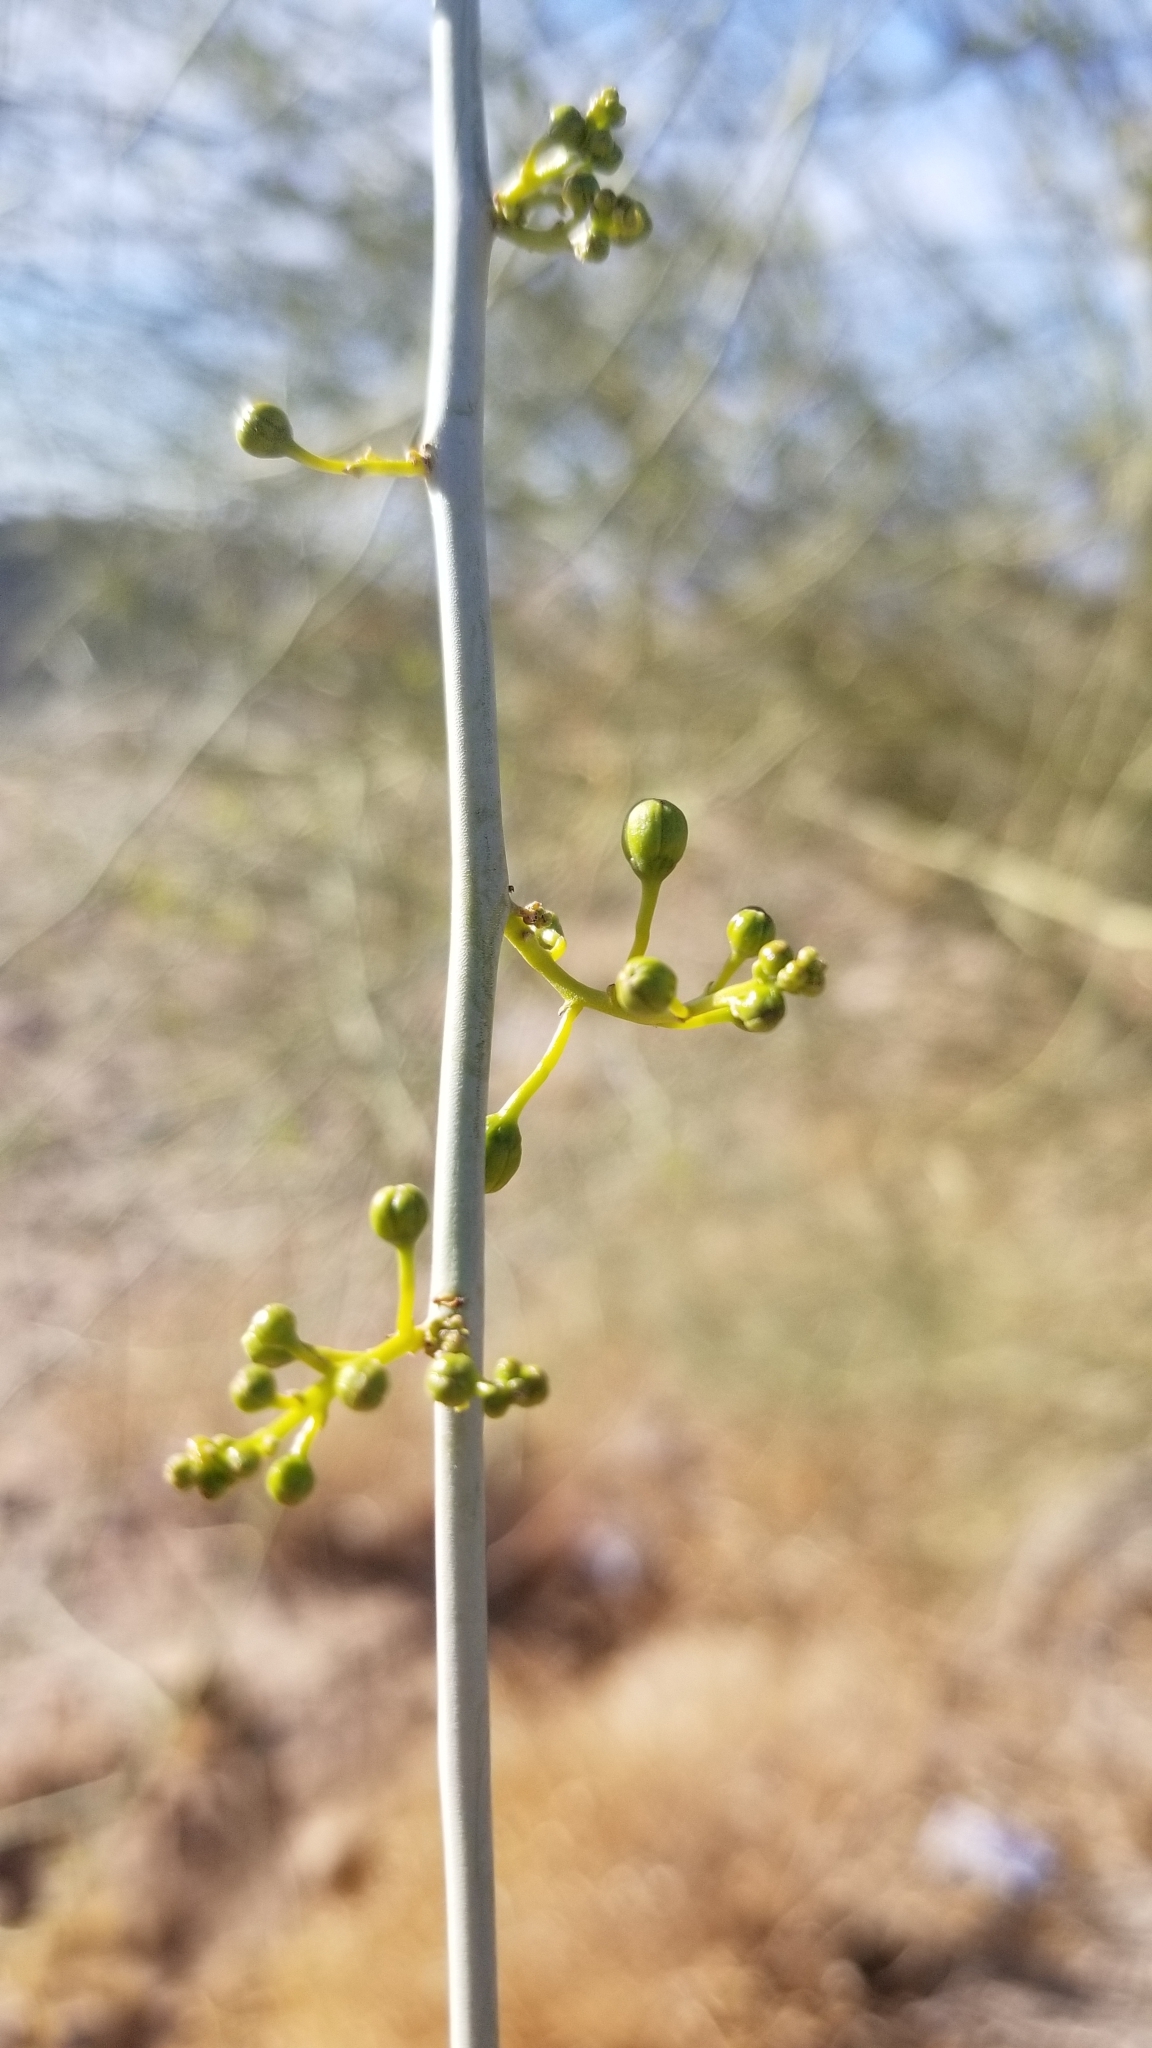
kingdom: Plantae
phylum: Tracheophyta
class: Magnoliopsida
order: Fabales
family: Fabaceae
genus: Parkinsonia
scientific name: Parkinsonia florida
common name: Blue paloverde
